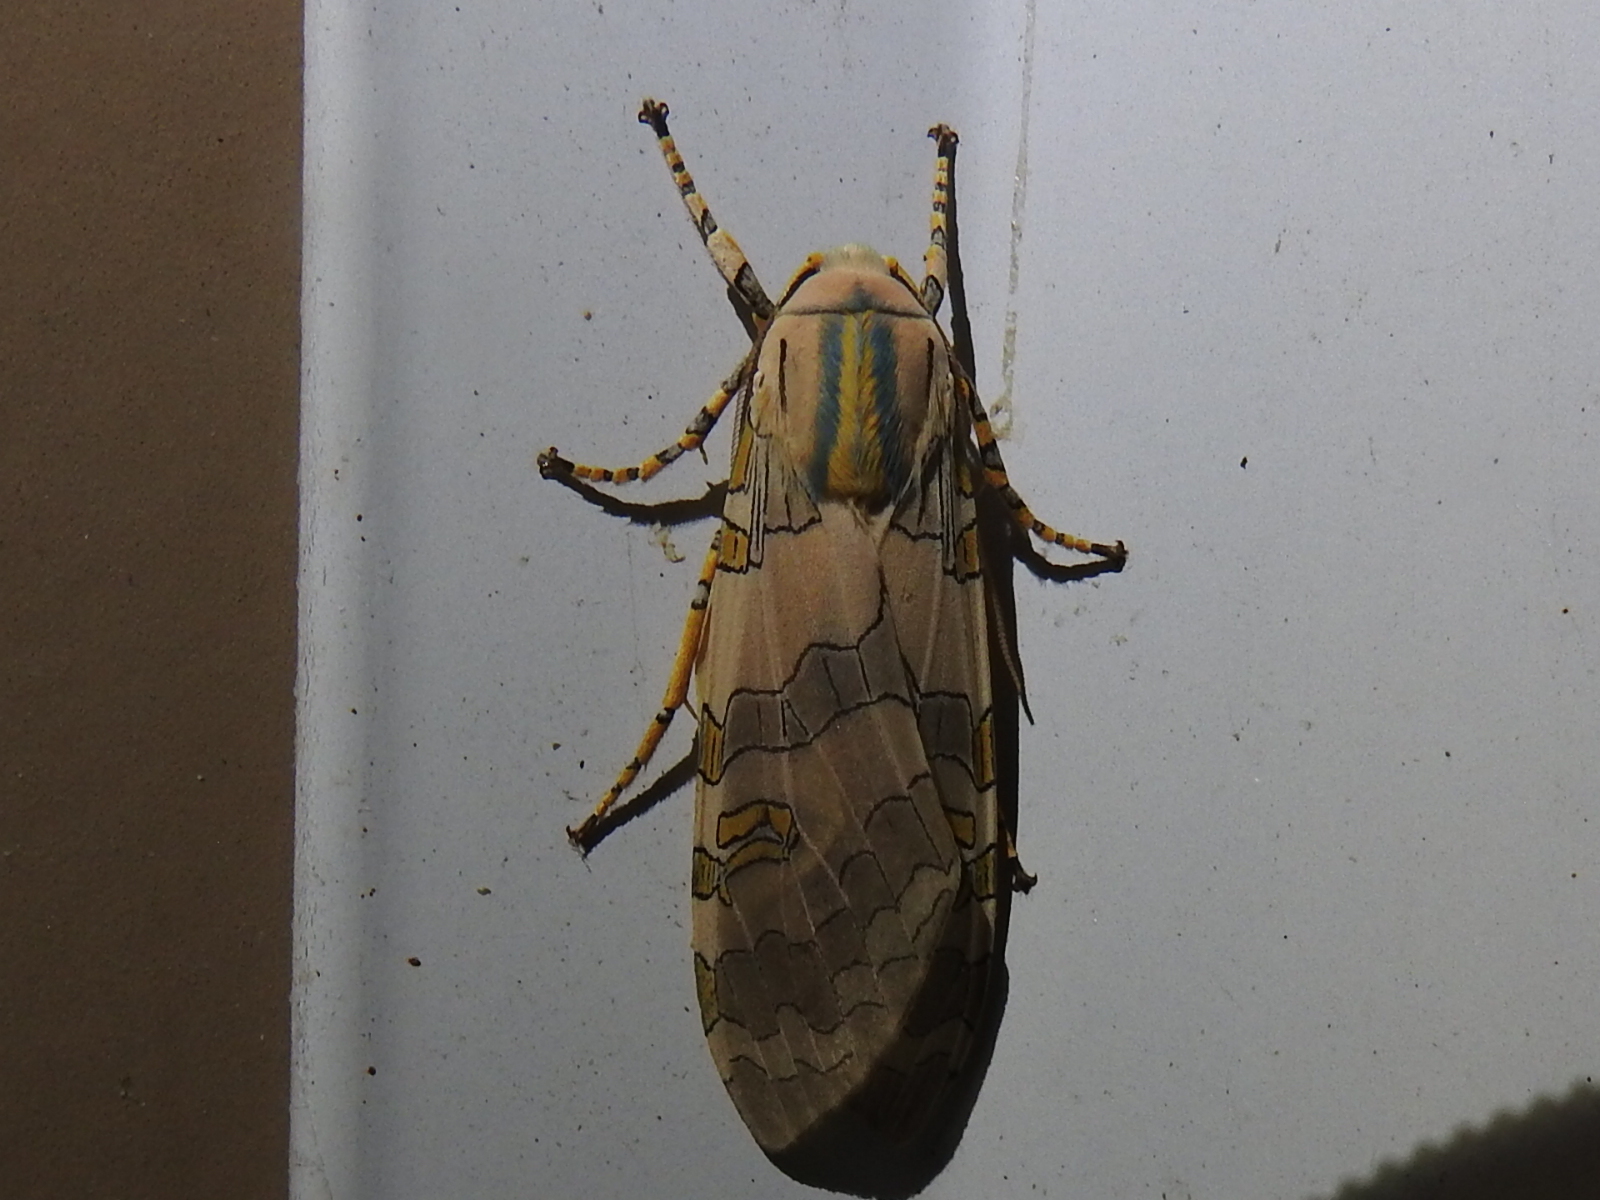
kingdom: Animalia
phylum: Arthropoda
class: Insecta
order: Lepidoptera
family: Erebidae
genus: Halysidota
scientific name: Halysidota schausi
